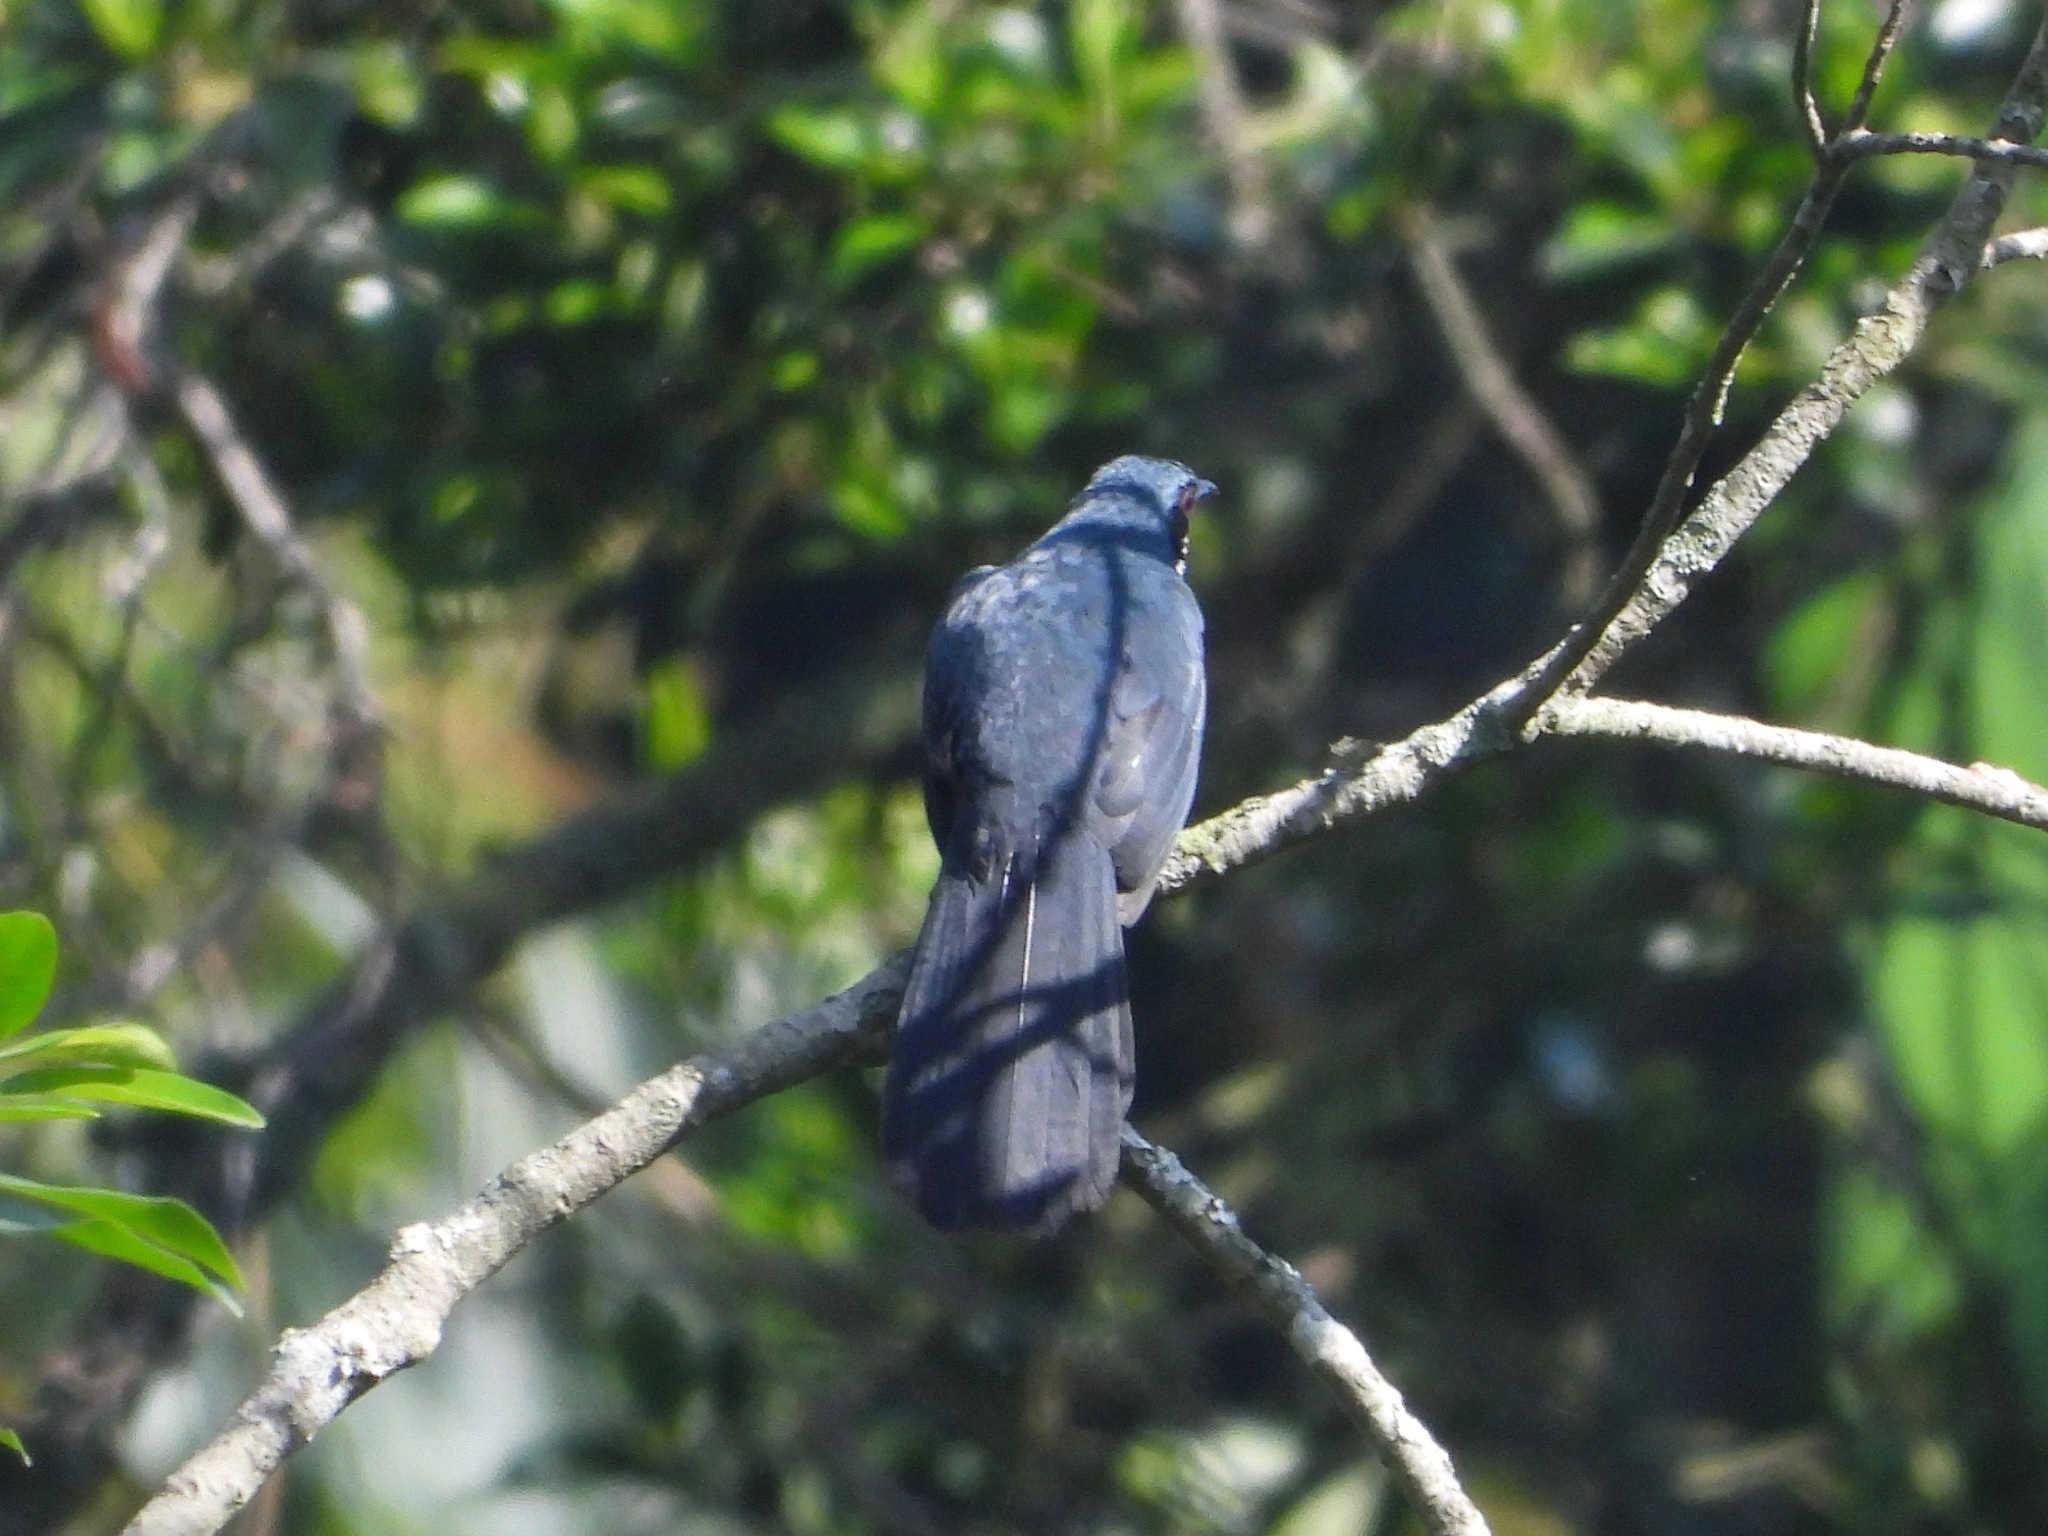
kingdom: Animalia
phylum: Chordata
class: Aves
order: Passeriformes
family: Mimidae
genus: Melanotis
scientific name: Melanotis hypoleucus
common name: Blue-and-white mockingbird
